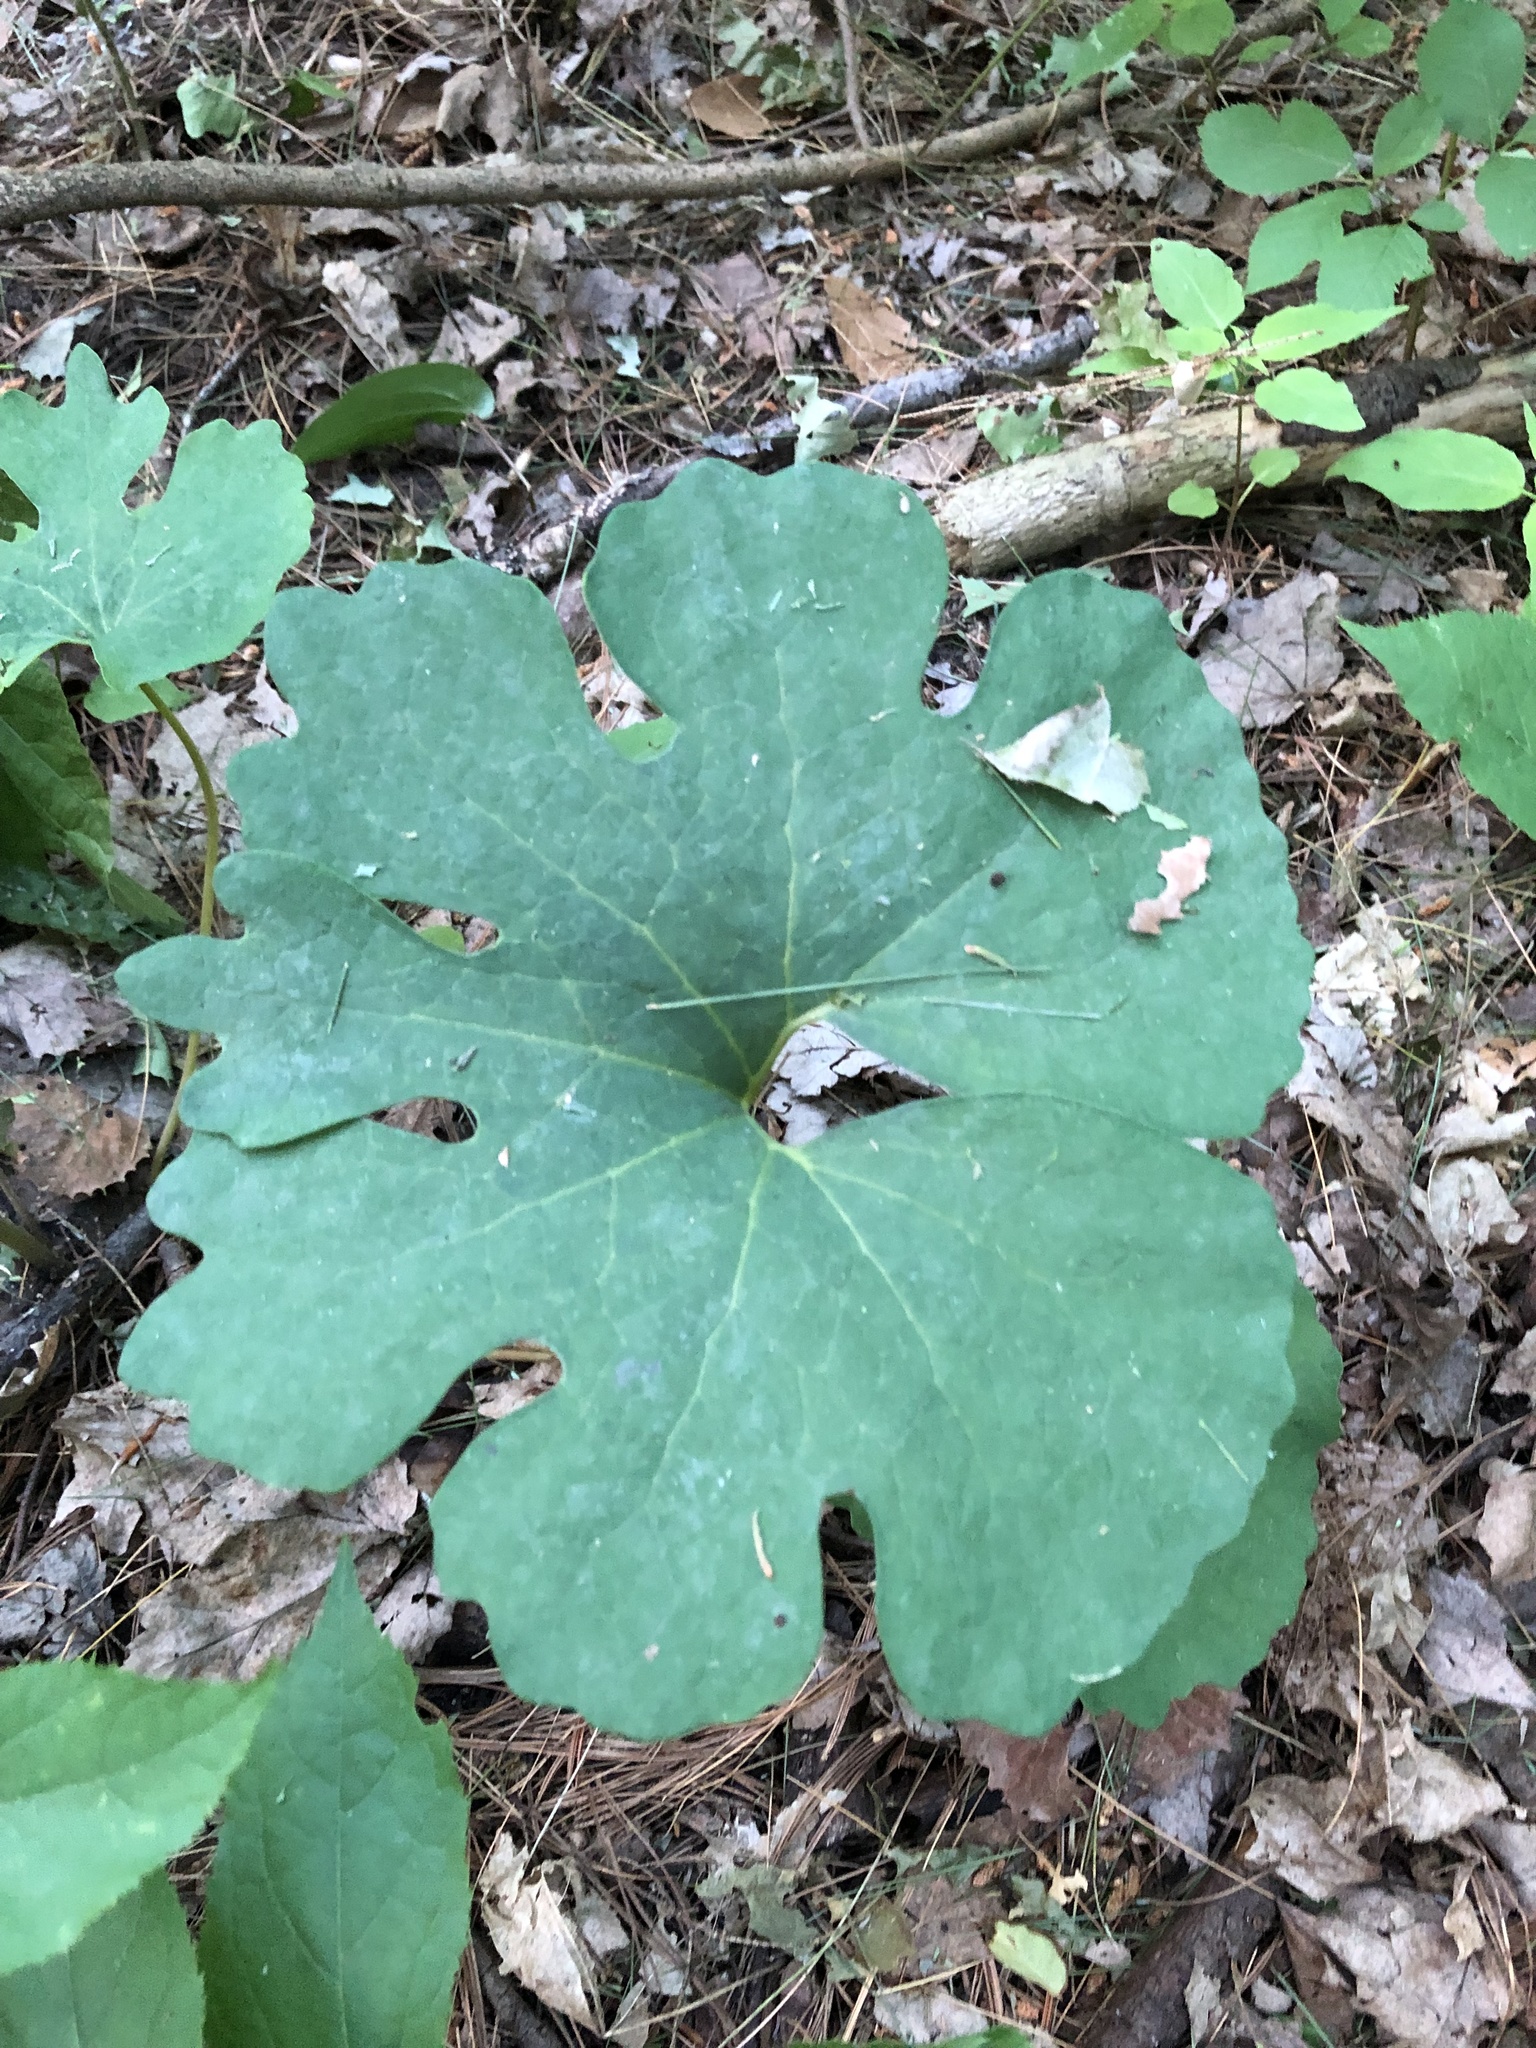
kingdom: Plantae
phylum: Tracheophyta
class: Magnoliopsida
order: Ranunculales
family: Papaveraceae
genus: Sanguinaria
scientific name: Sanguinaria canadensis
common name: Bloodroot
